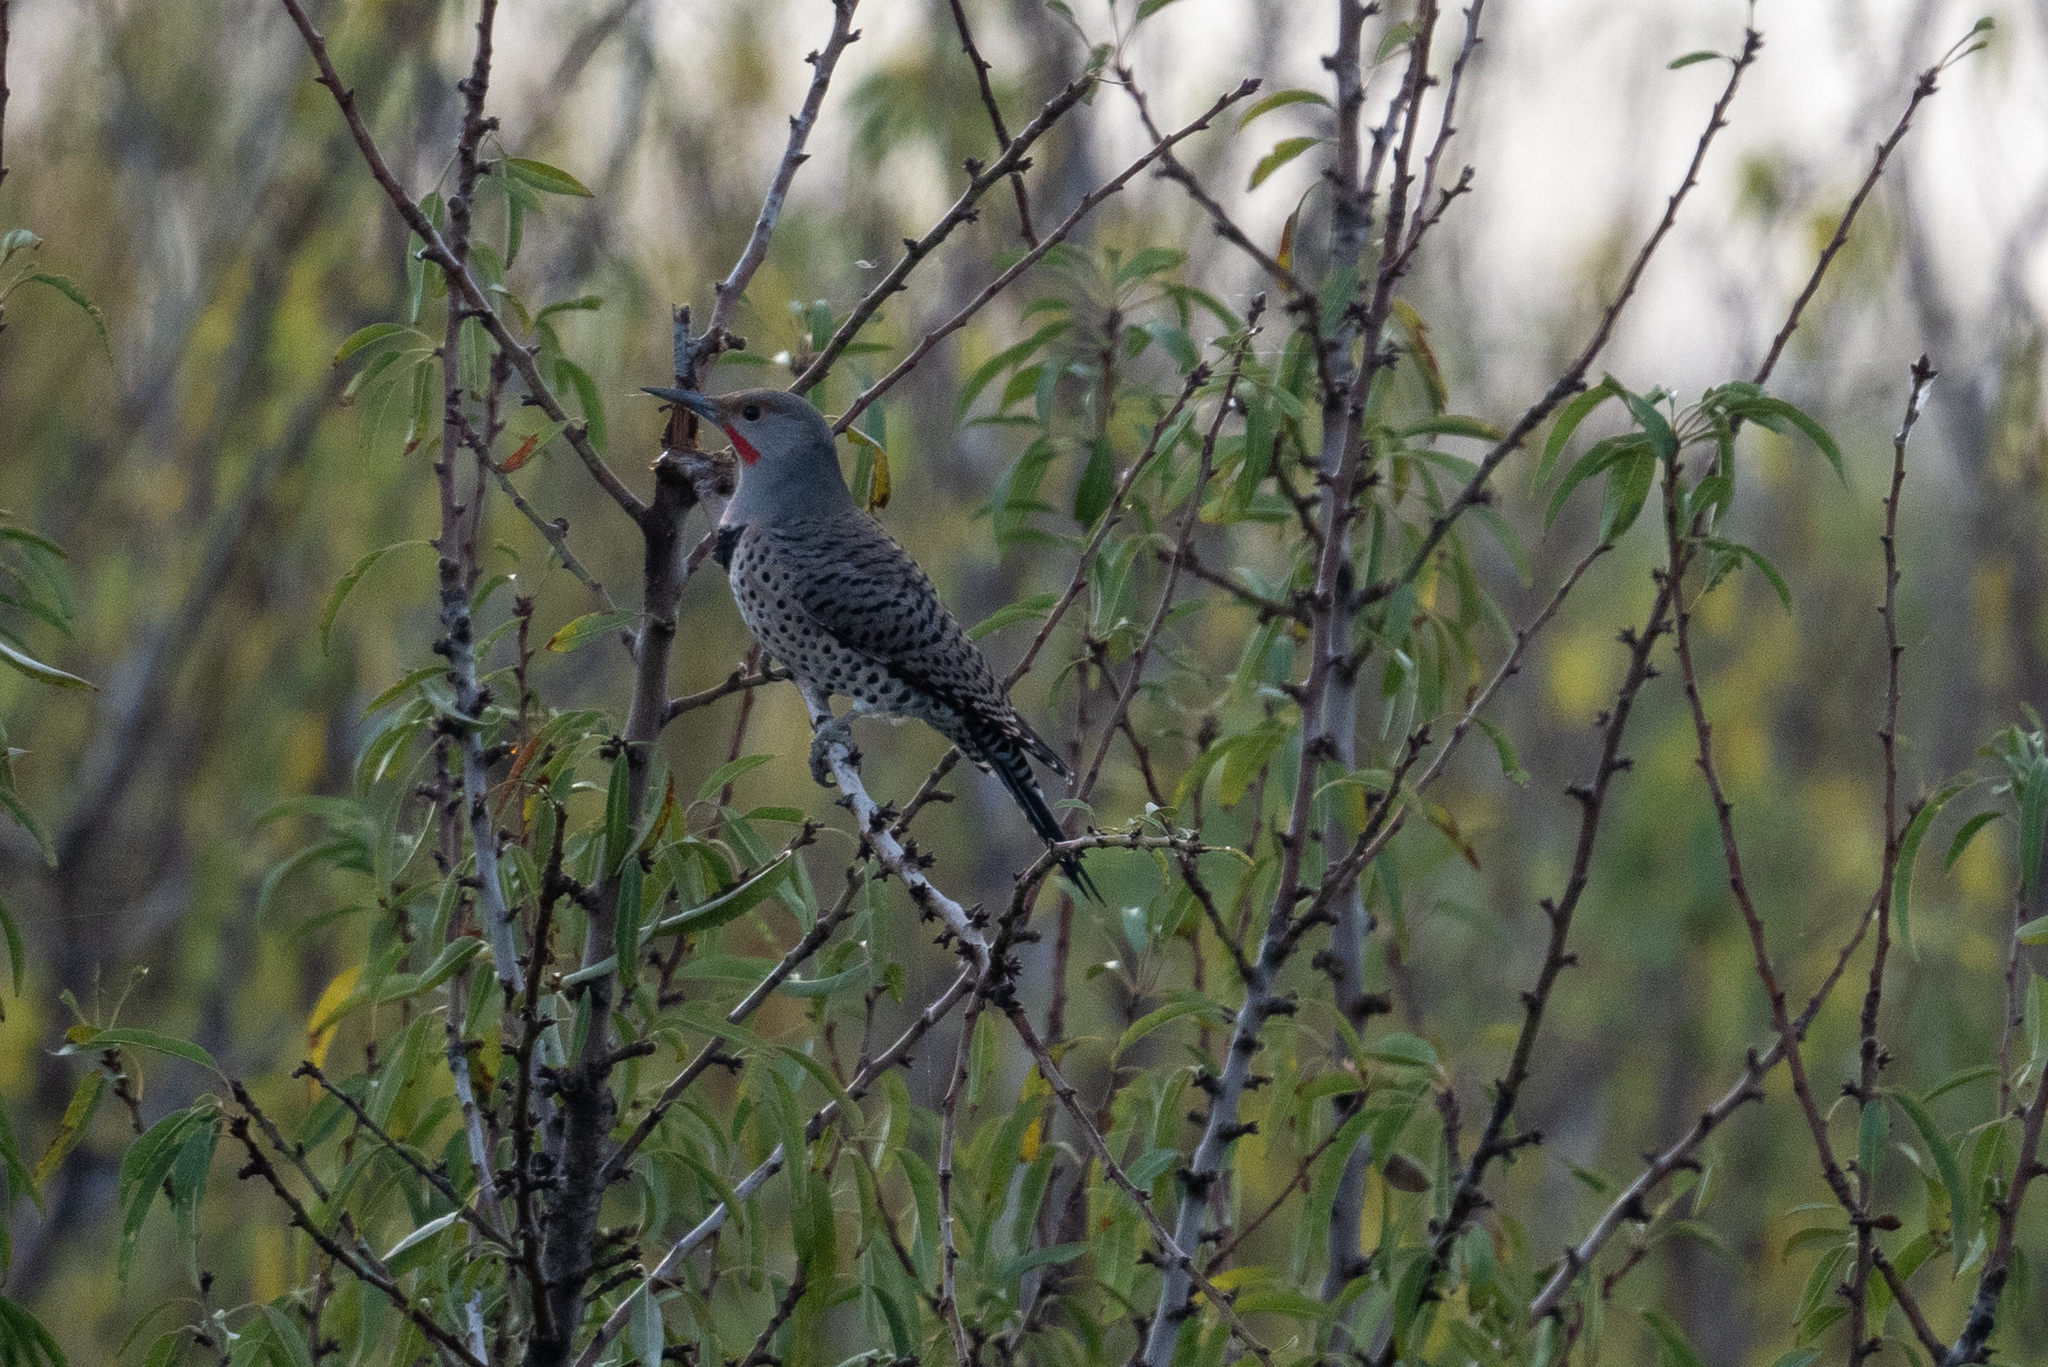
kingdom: Animalia
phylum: Chordata
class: Aves
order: Piciformes
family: Picidae
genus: Colaptes
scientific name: Colaptes auratus
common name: Northern flicker
